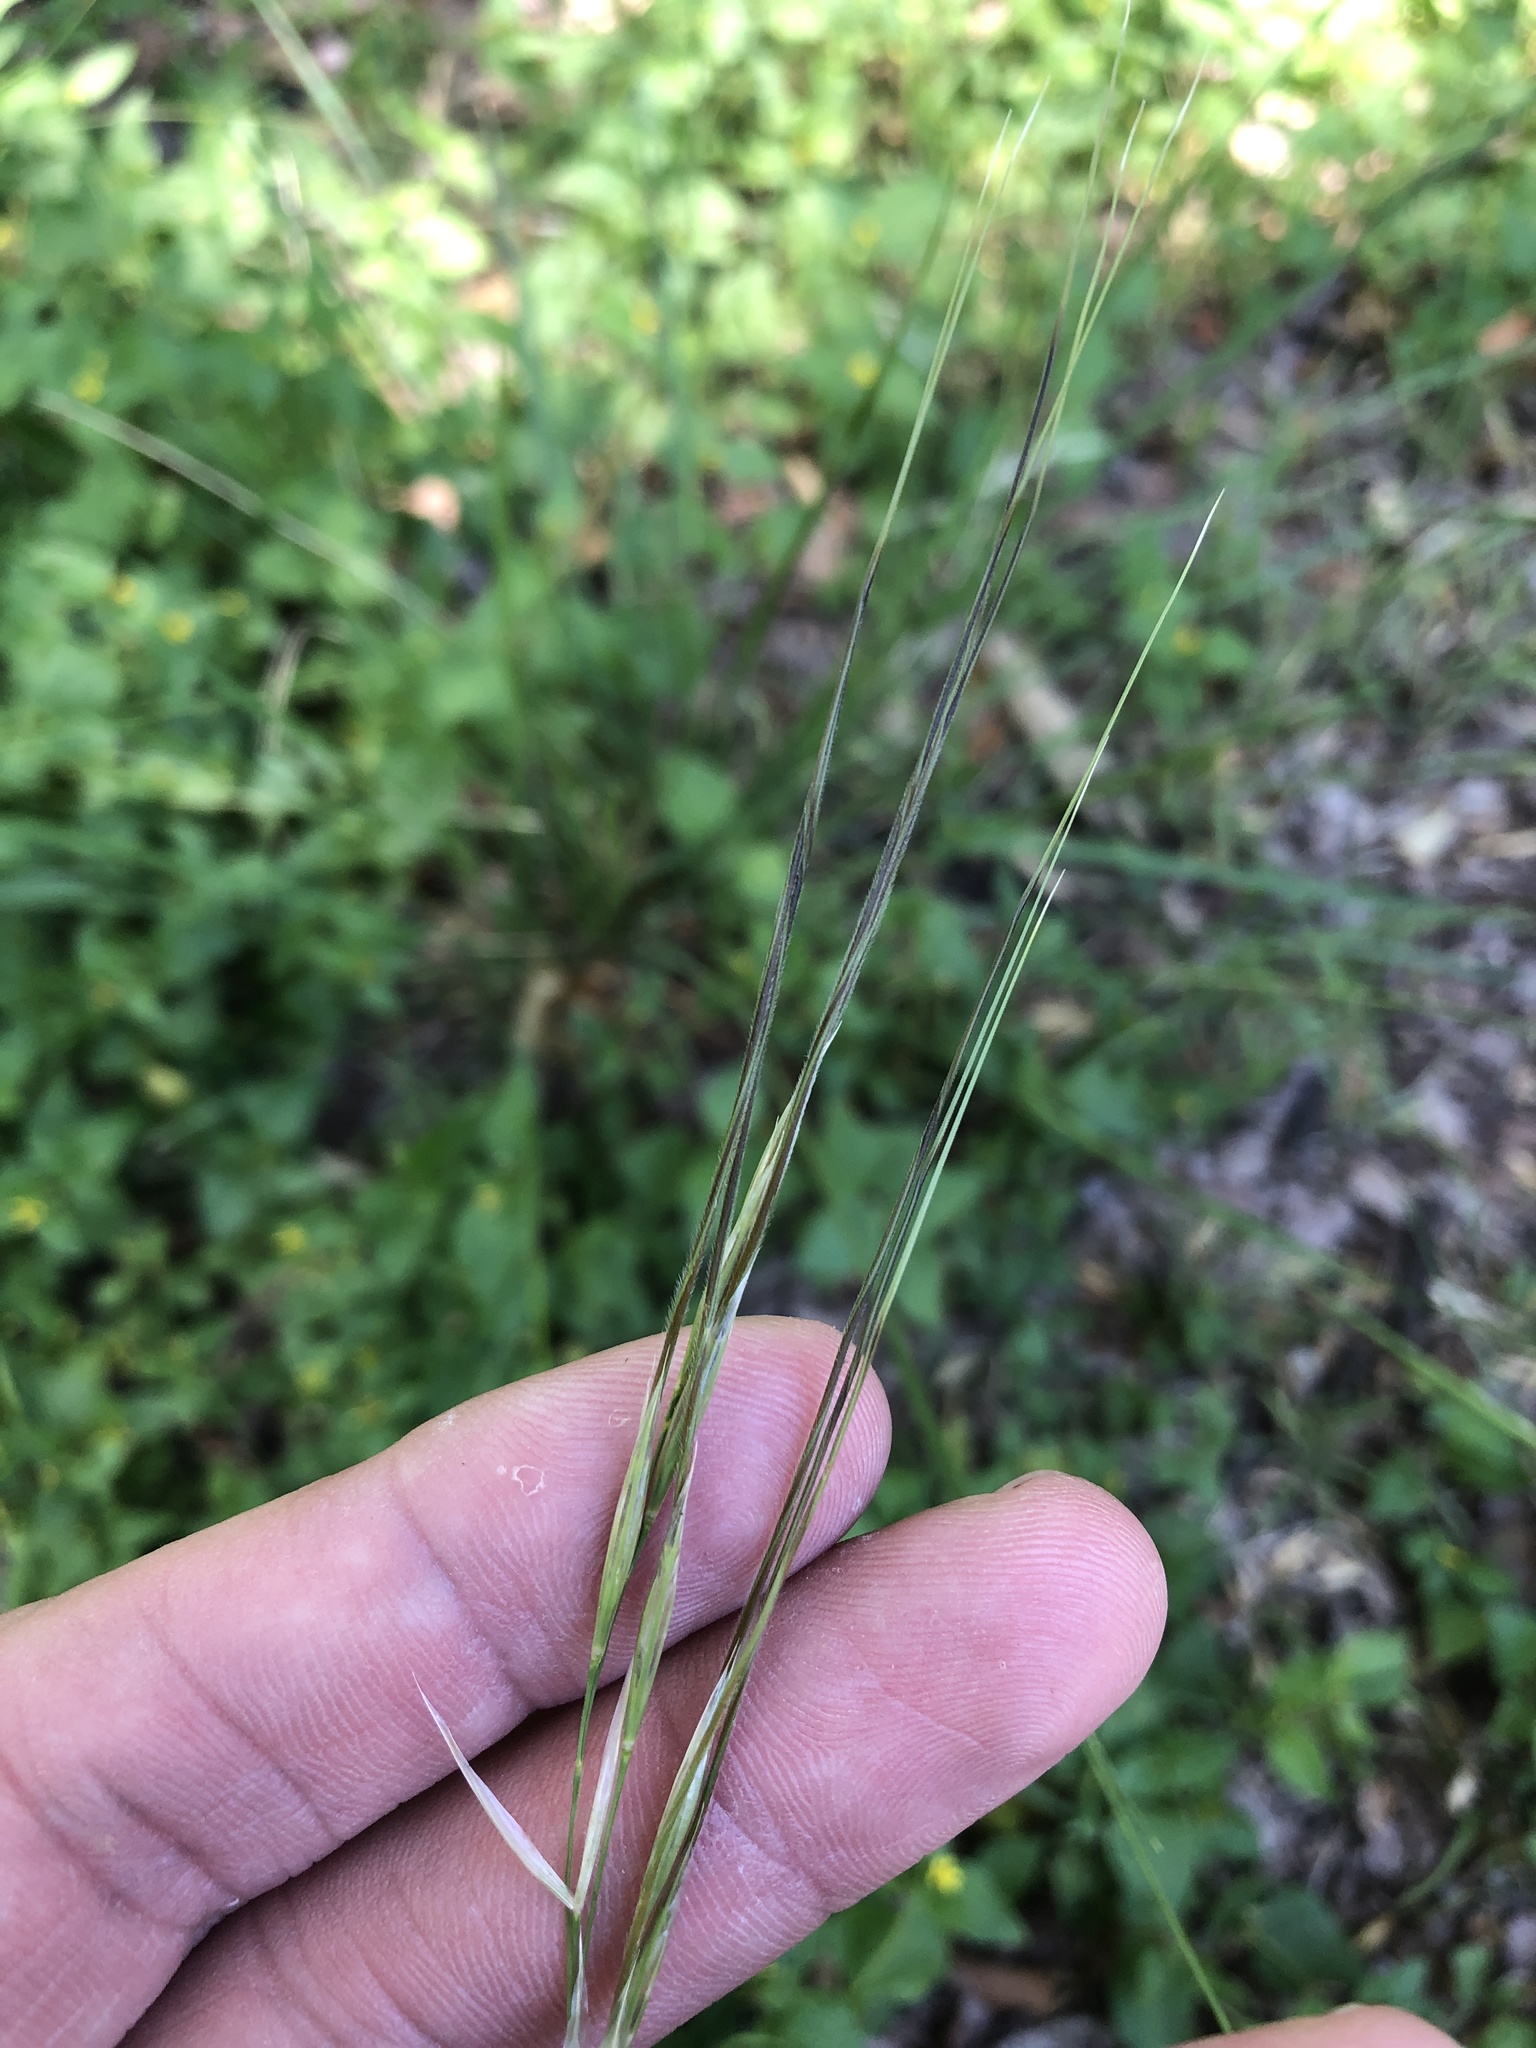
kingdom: Plantae
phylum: Tracheophyta
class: Liliopsida
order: Poales
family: Poaceae
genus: Nassella
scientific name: Nassella leucotricha
